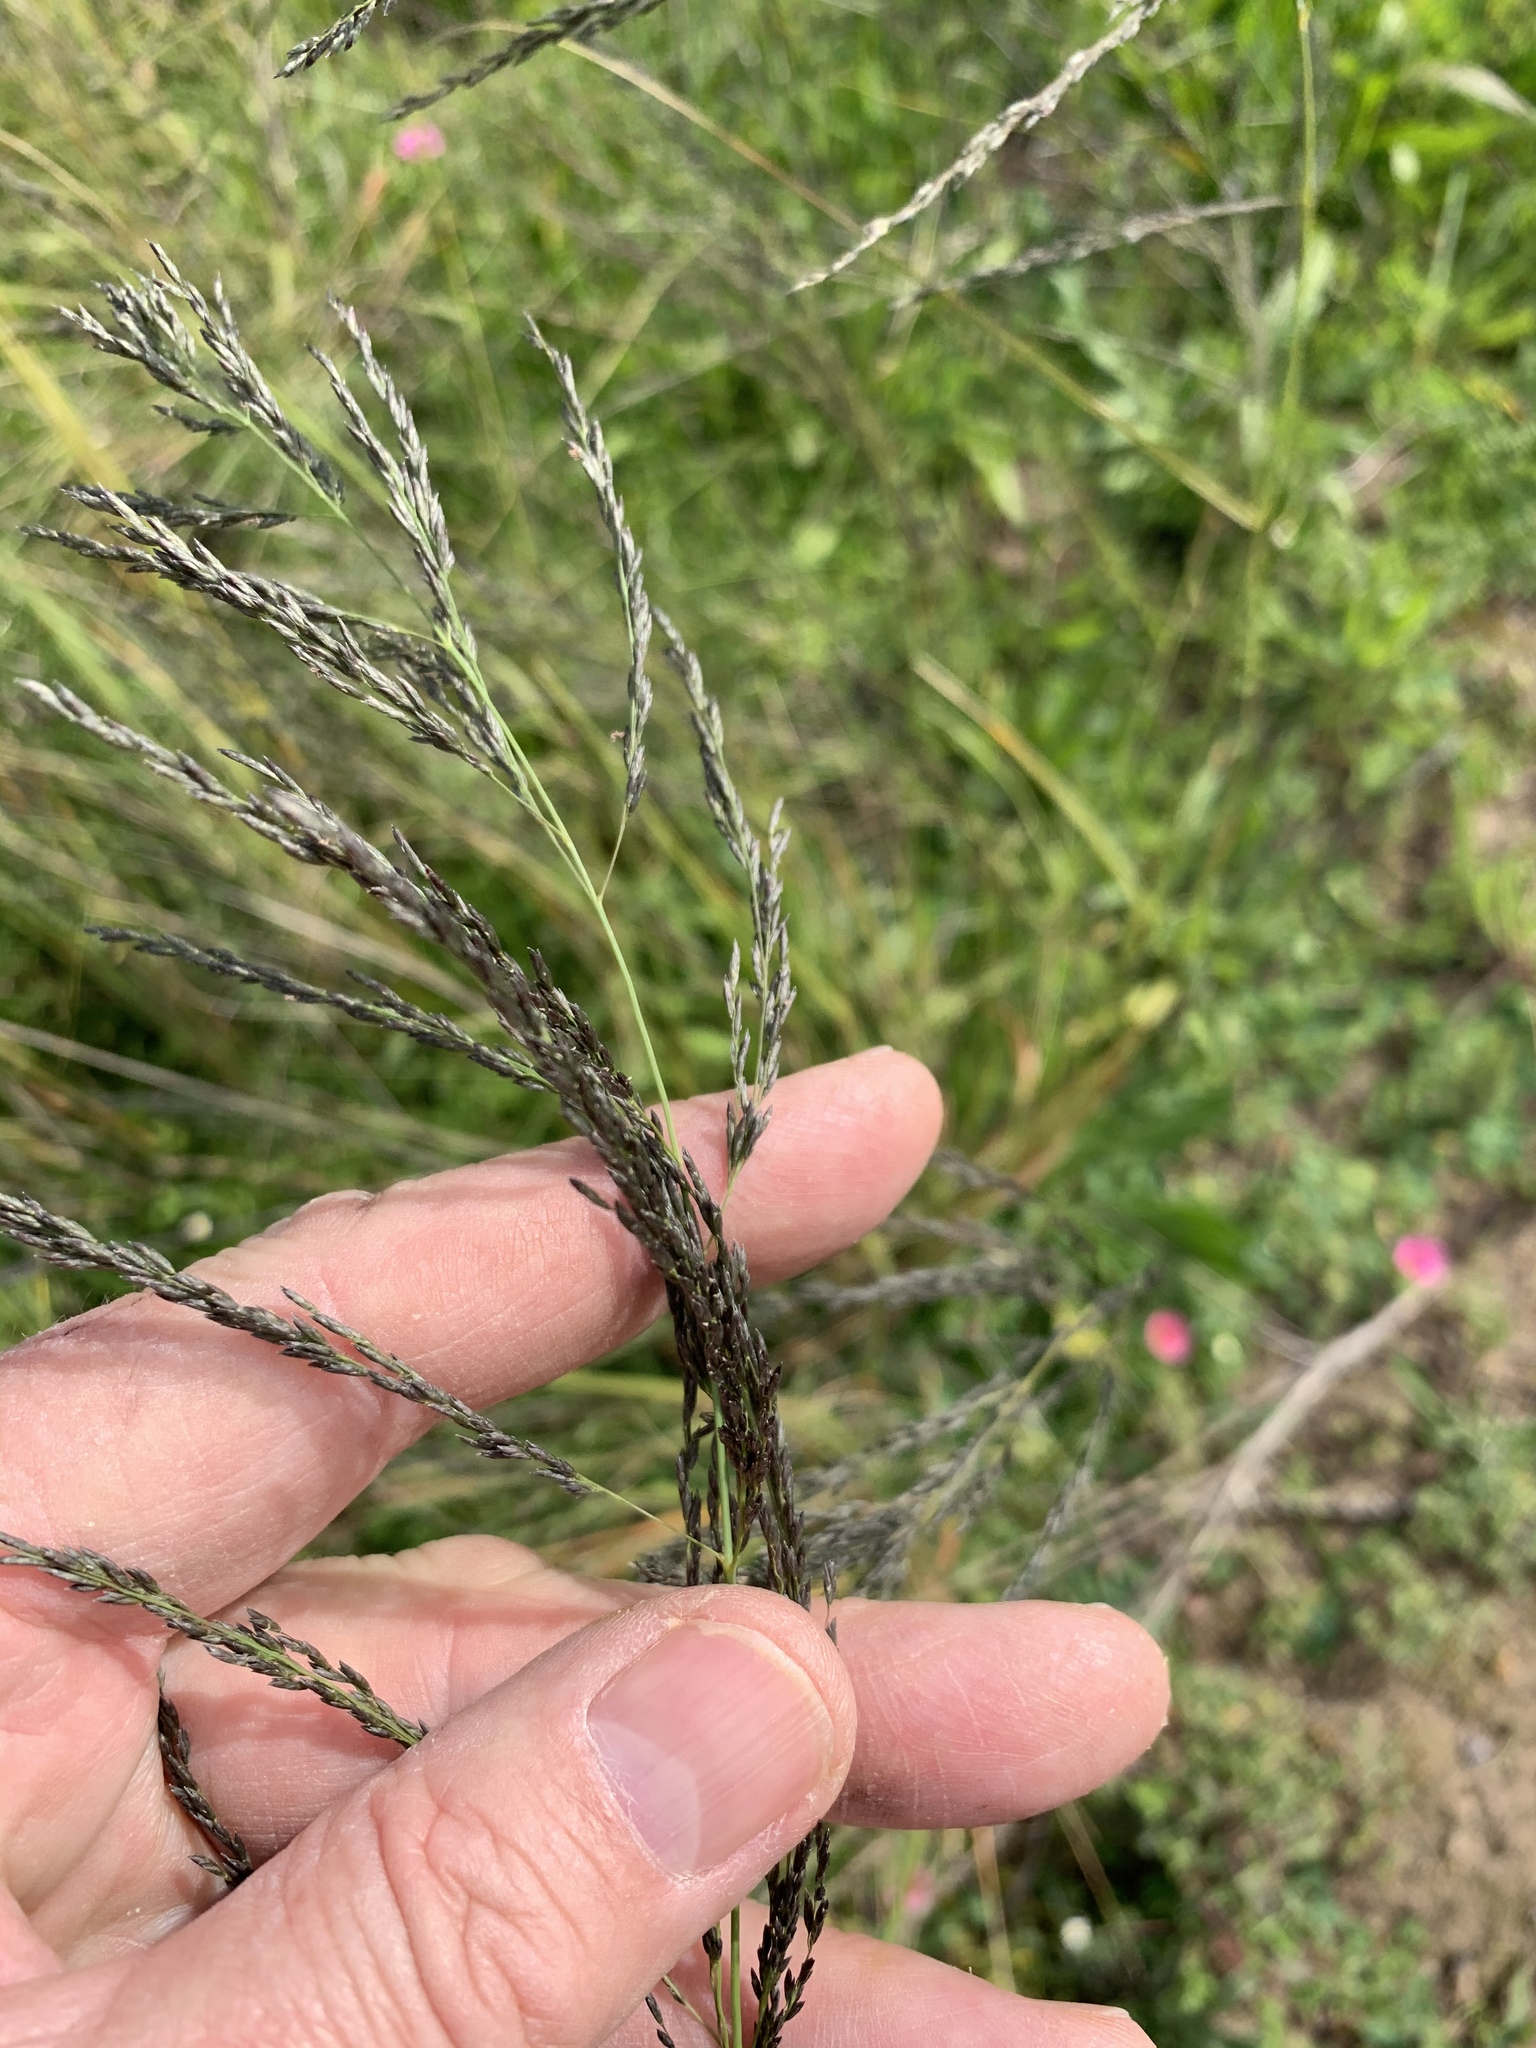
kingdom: Plantae
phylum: Tracheophyta
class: Liliopsida
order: Poales
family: Poaceae
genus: Eragrostis
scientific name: Eragrostis curvula
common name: African love-grass
